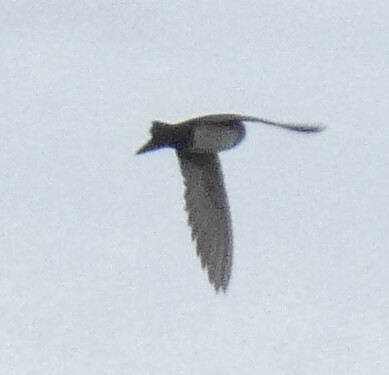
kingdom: Animalia
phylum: Chordata
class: Aves
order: Passeriformes
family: Hirundinidae
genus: Notiochelidon
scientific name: Notiochelidon cyanoleuca
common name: Blue-and-white swallow
